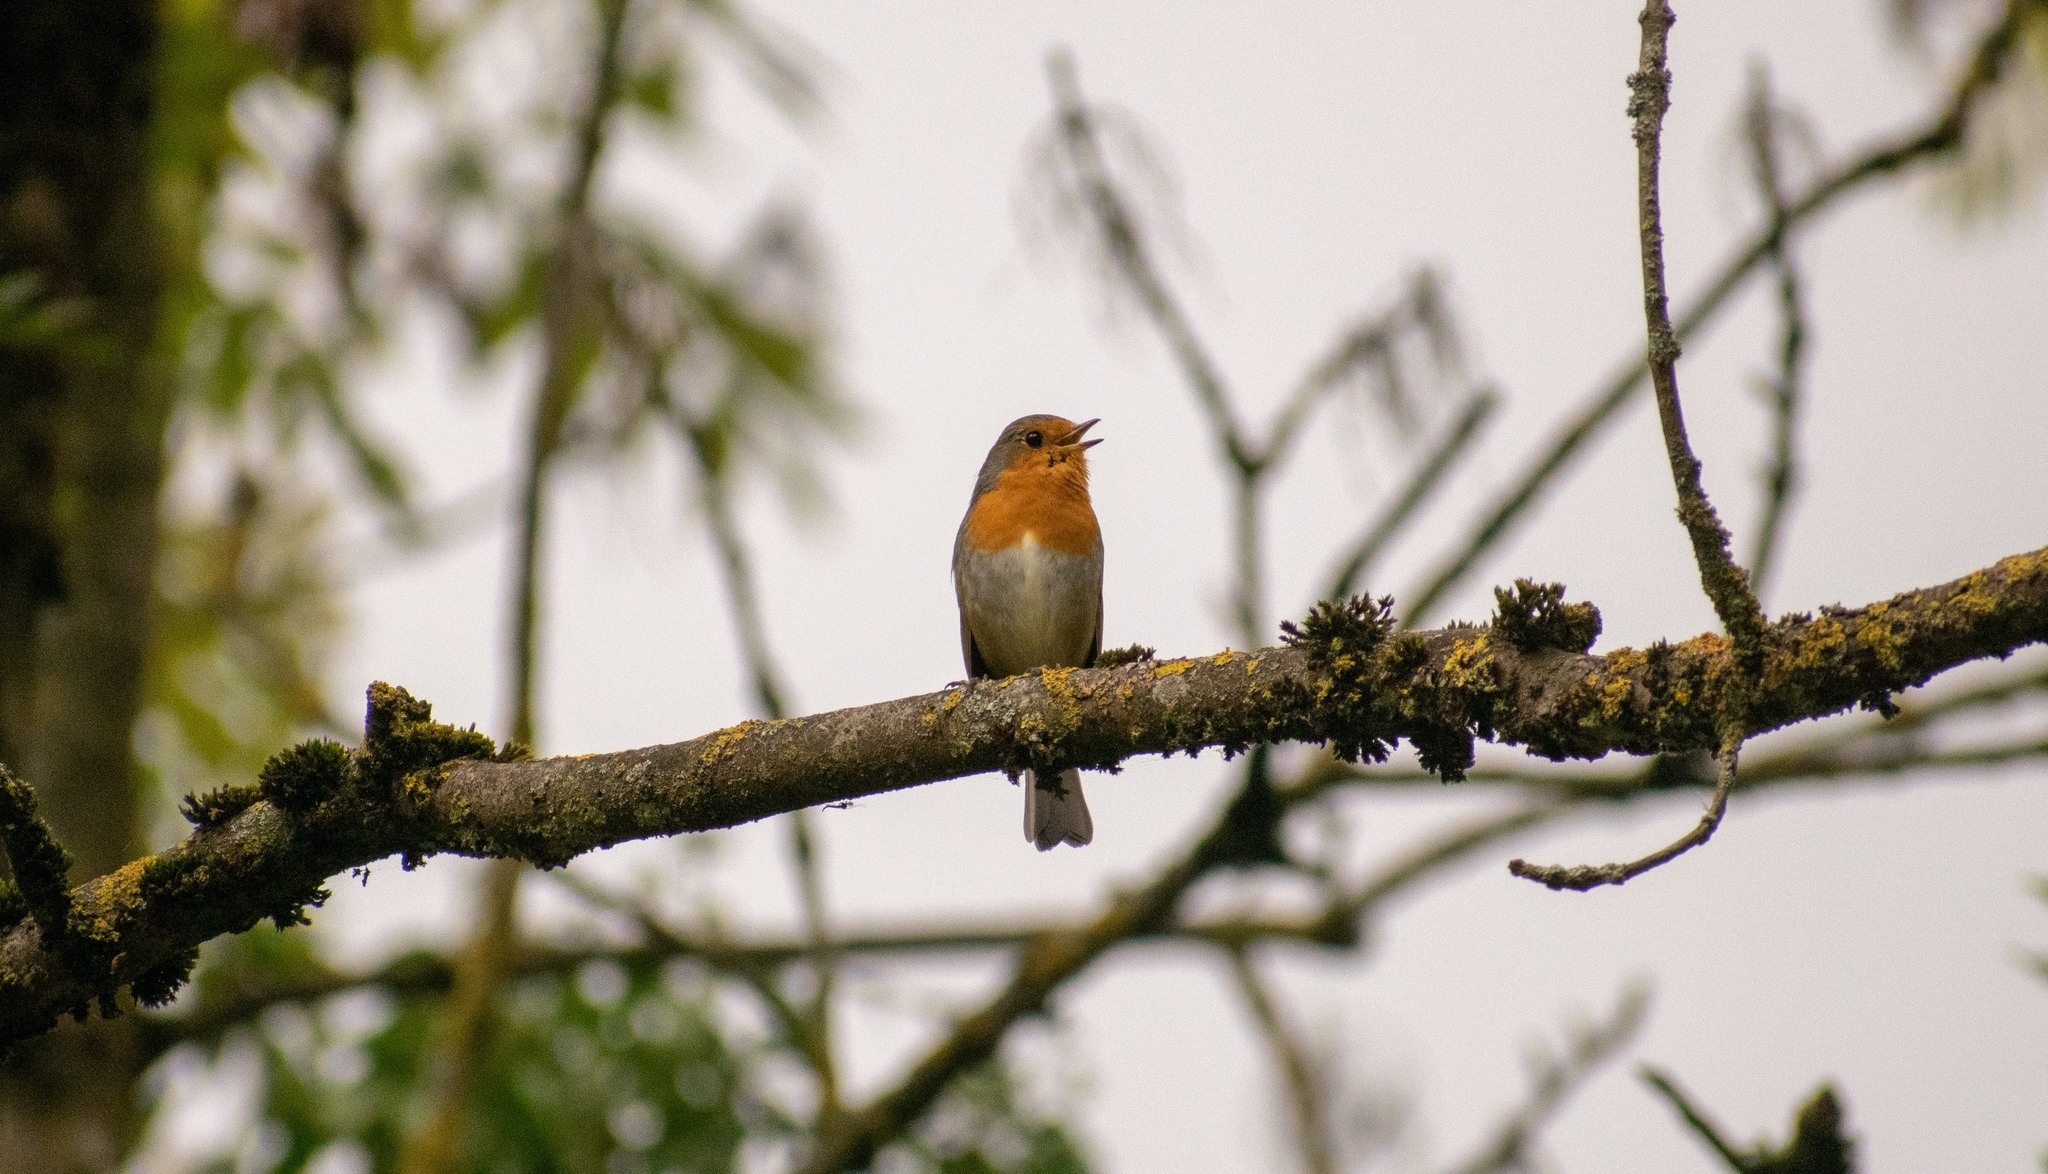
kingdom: Animalia
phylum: Chordata
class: Aves
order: Passeriformes
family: Muscicapidae
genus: Erithacus
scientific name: Erithacus rubecula
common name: European robin
